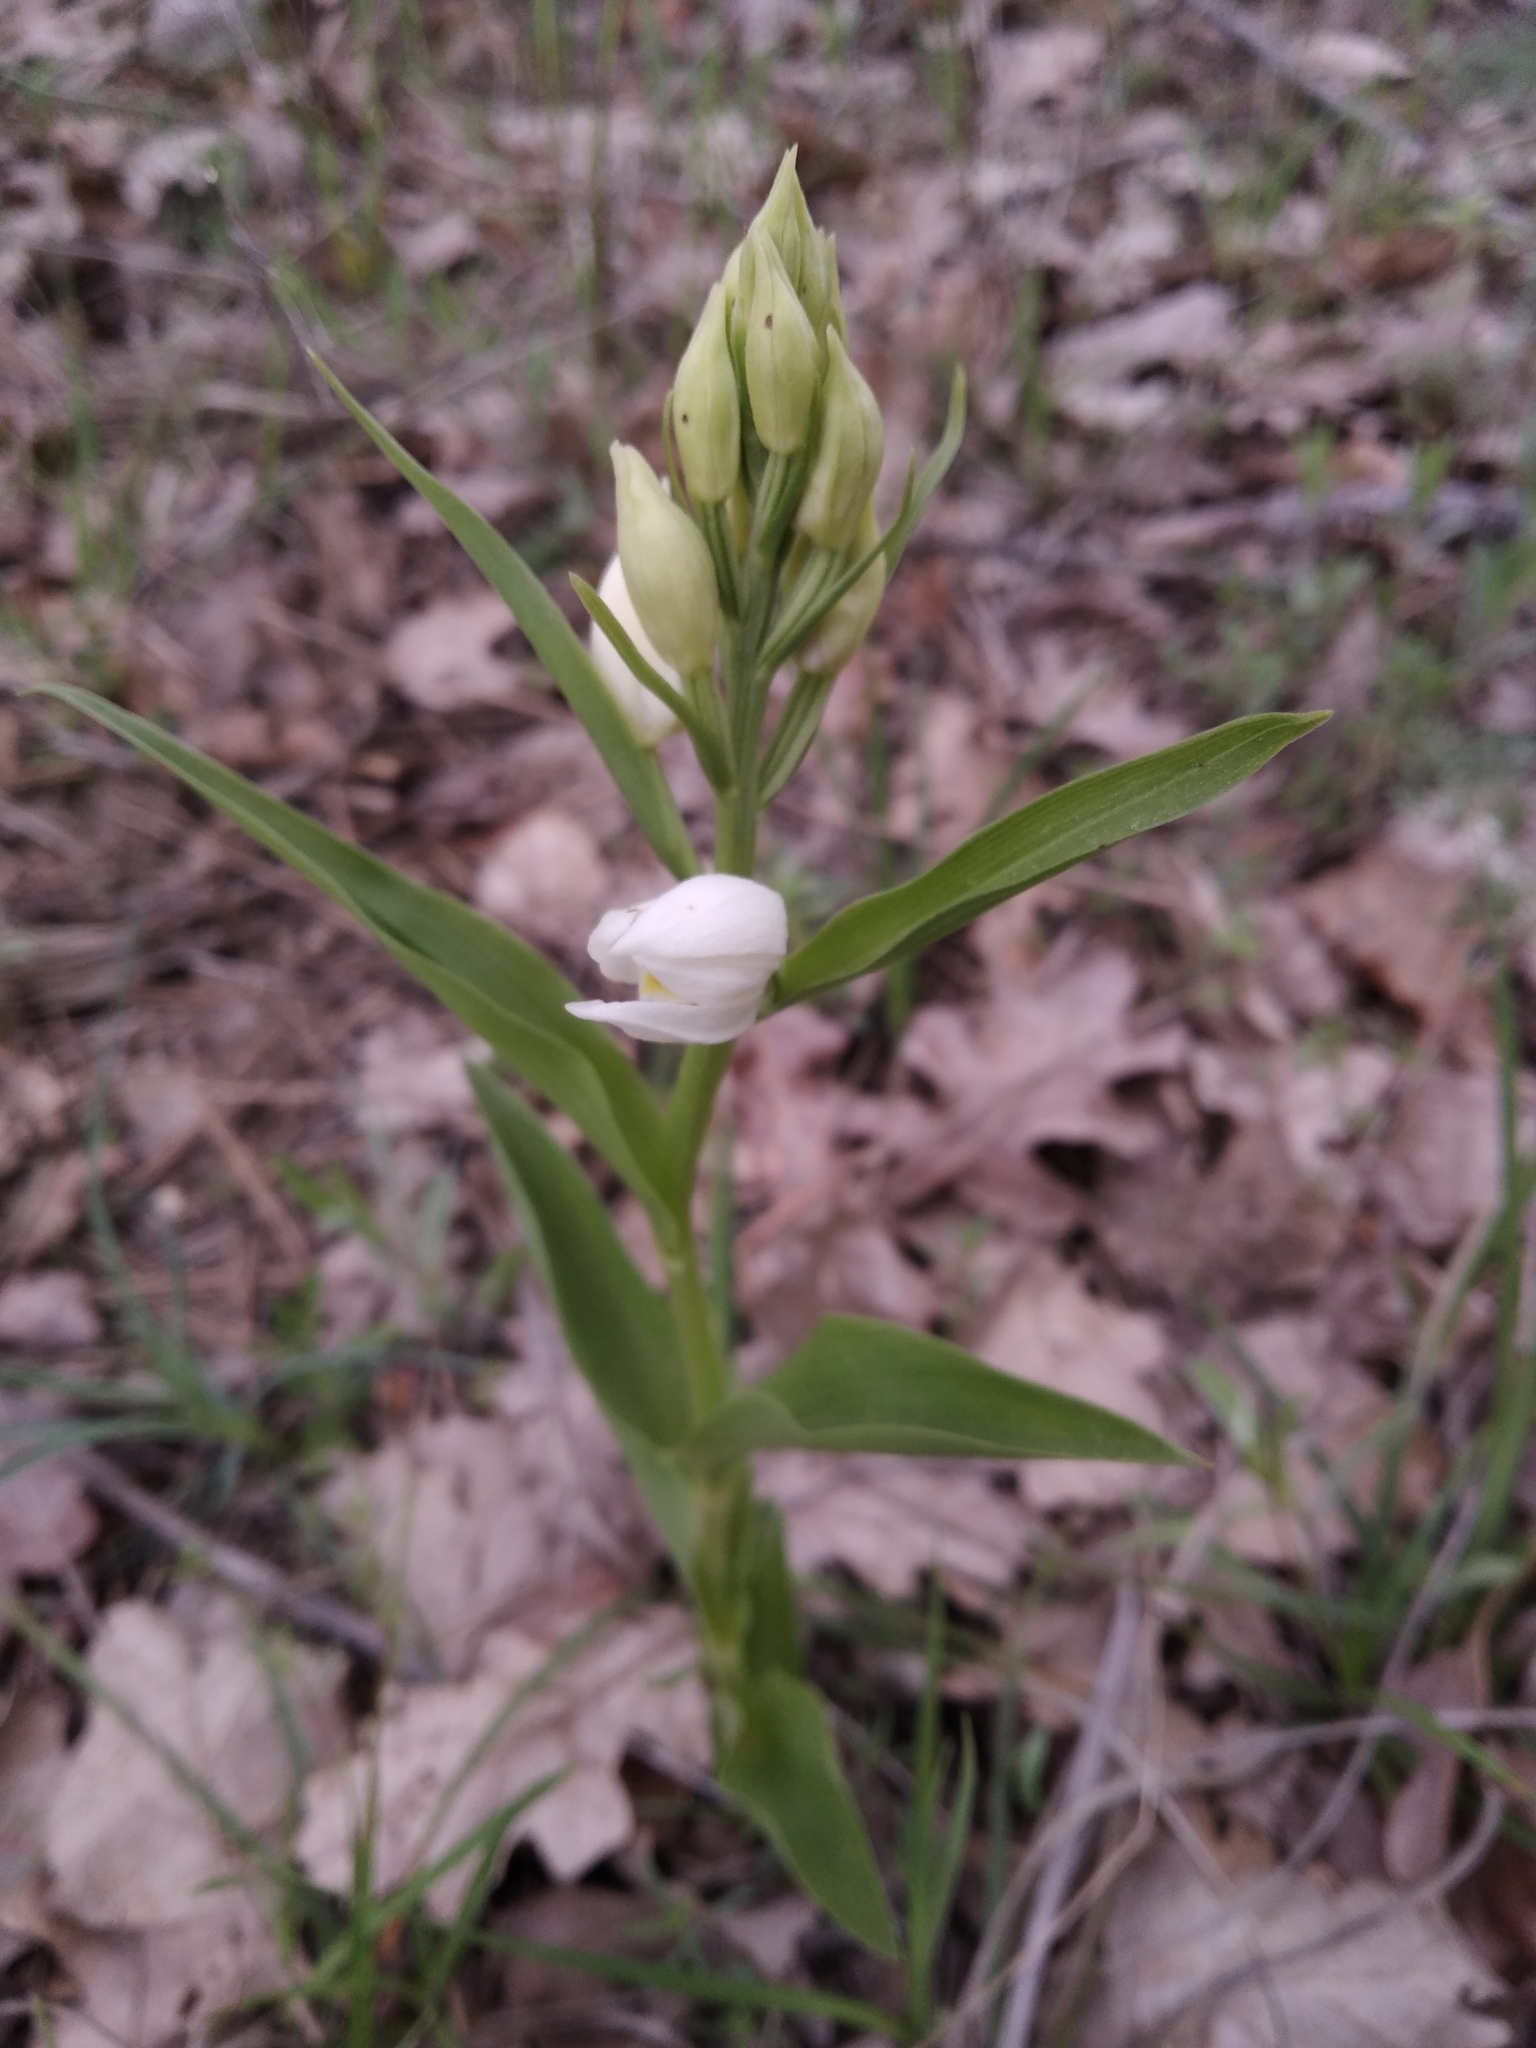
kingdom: Plantae
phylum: Tracheophyta
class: Liliopsida
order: Asparagales
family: Orchidaceae
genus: Cephalanthera
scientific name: Cephalanthera damasonium
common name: White helleborine
